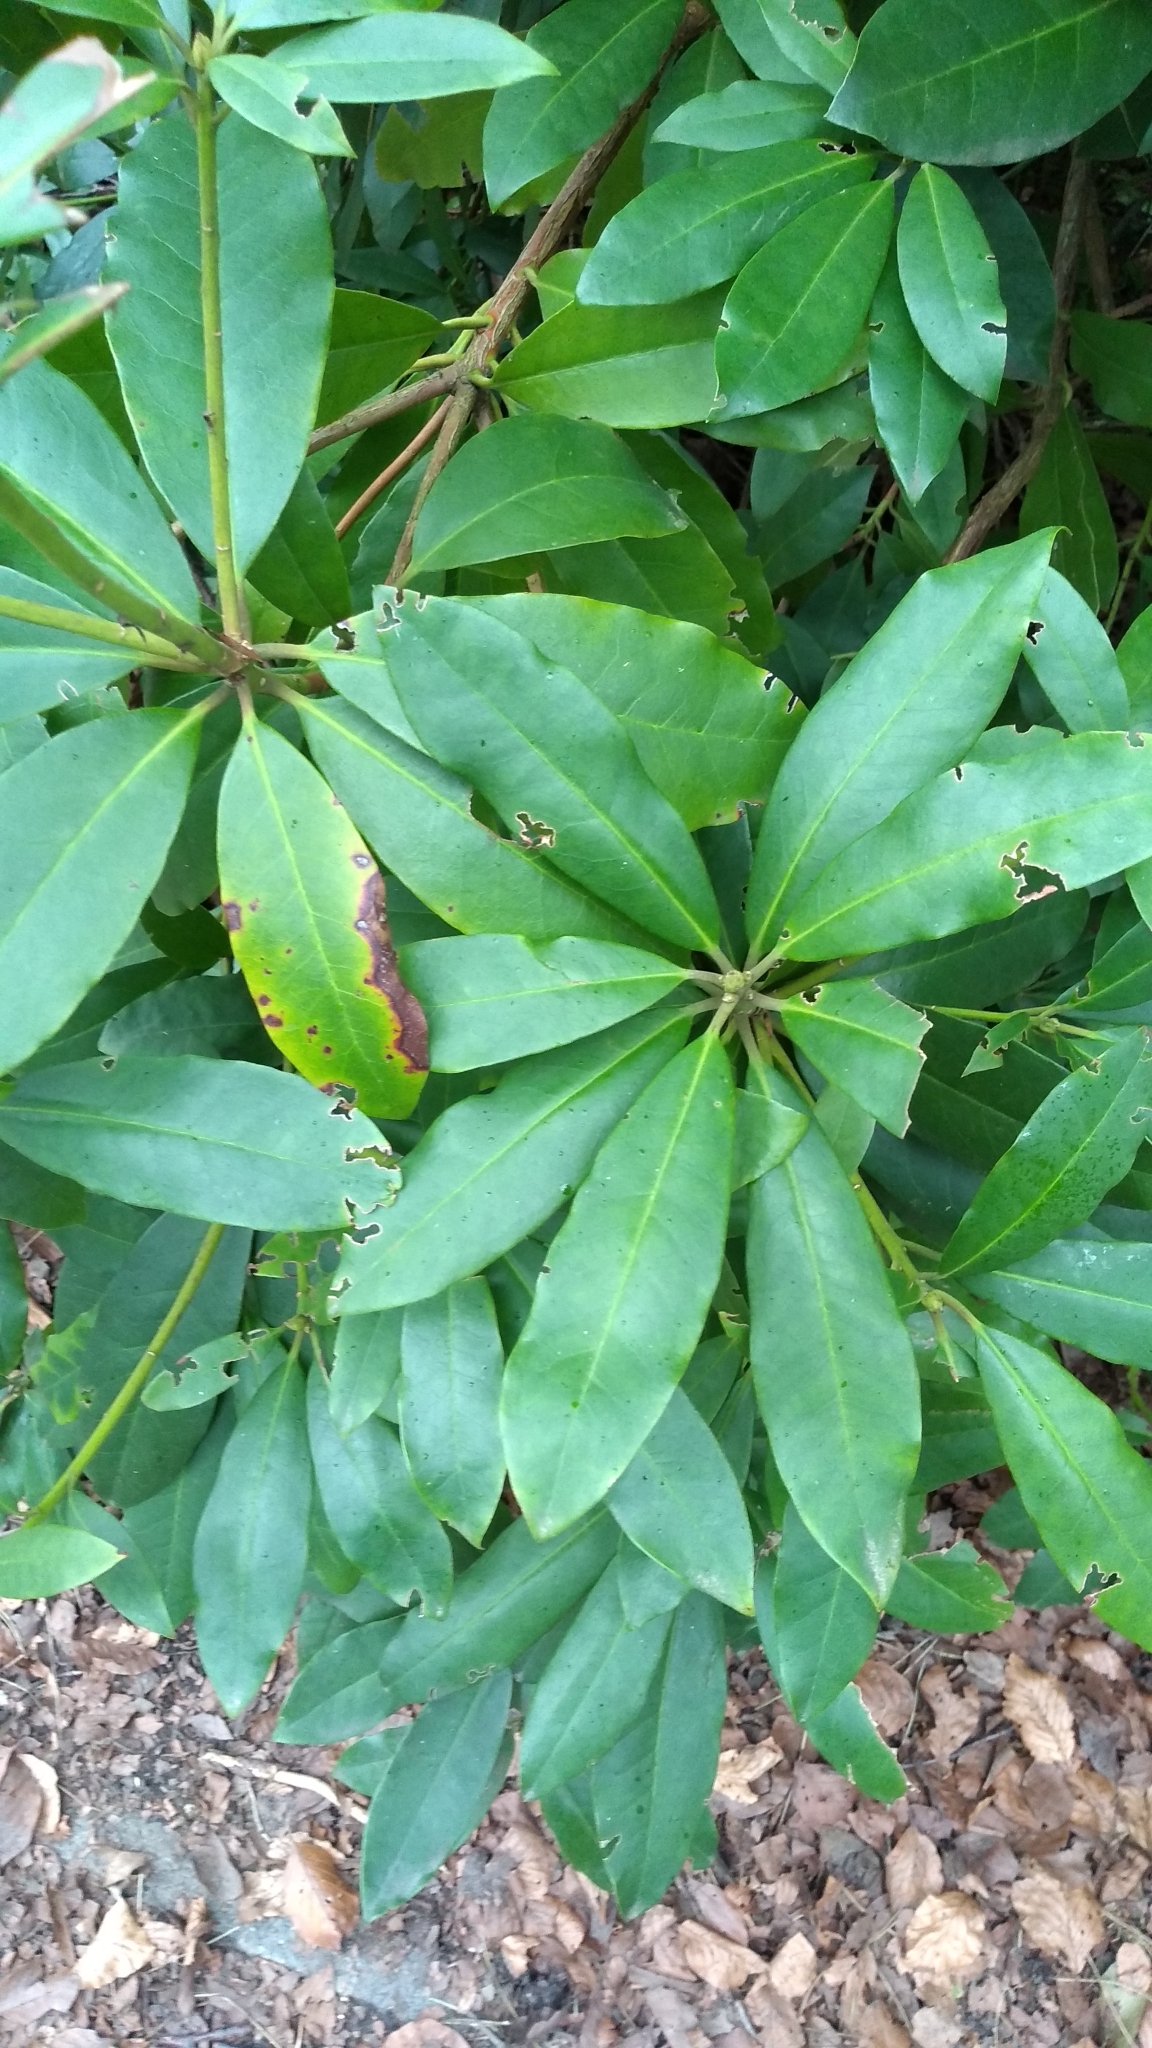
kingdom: Plantae
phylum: Tracheophyta
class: Magnoliopsida
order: Ericales
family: Ericaceae
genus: Rhododendron
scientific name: Rhododendron ponticum
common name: Rhododendron
